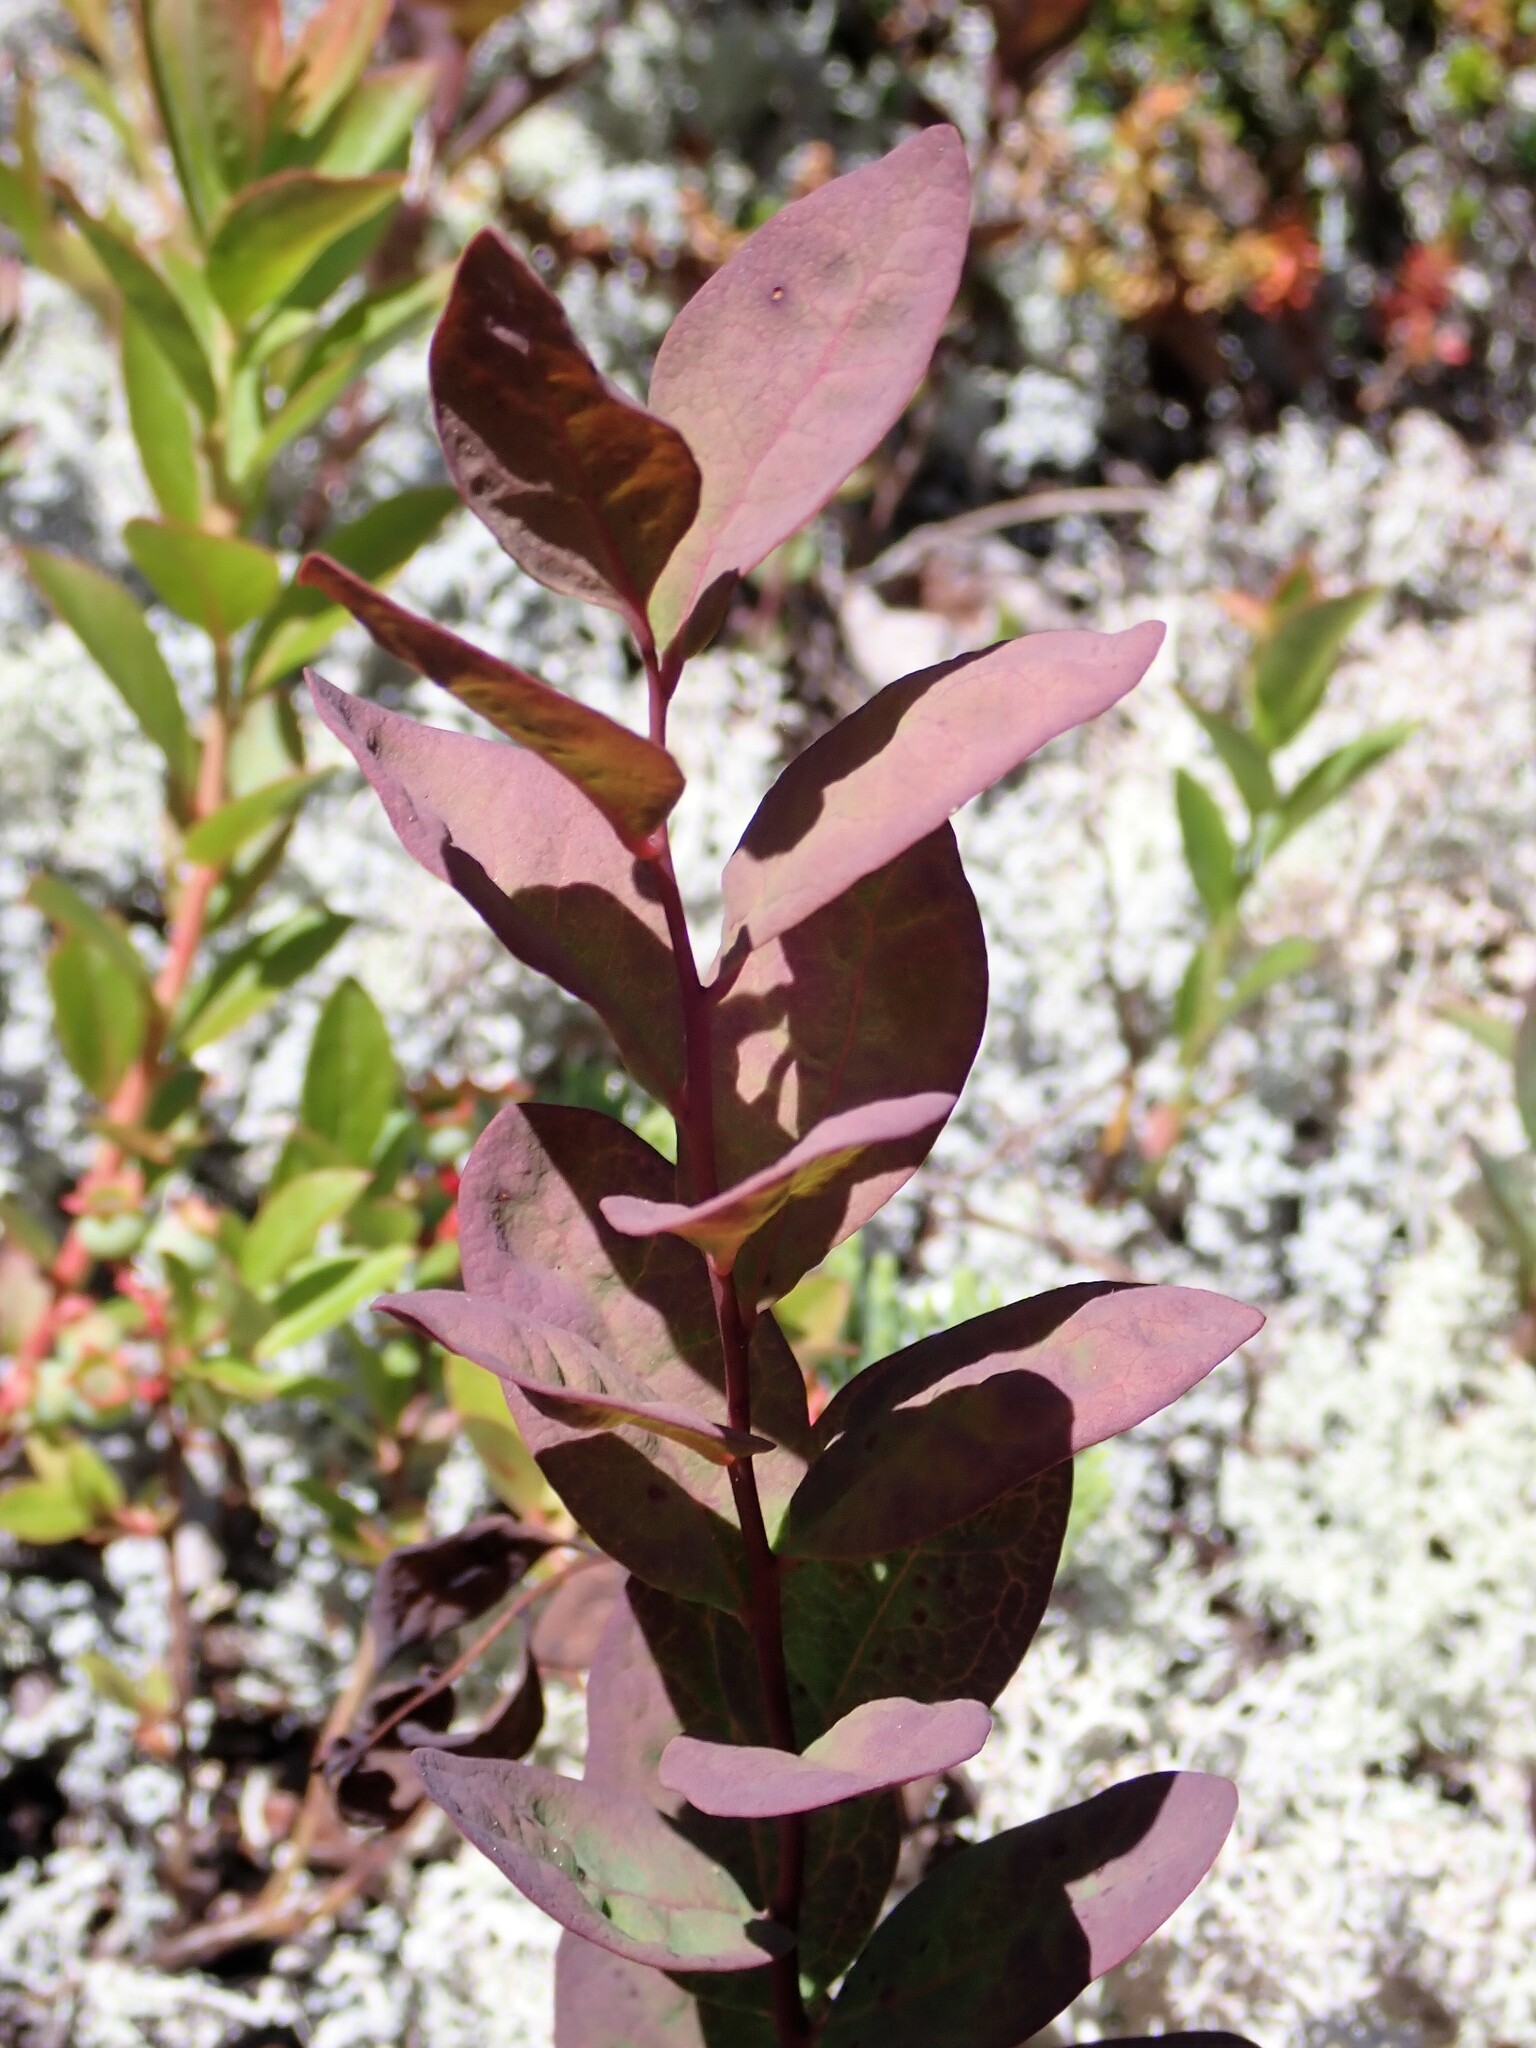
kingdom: Plantae
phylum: Tracheophyta
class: Magnoliopsida
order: Santalales
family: Comandraceae
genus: Geocaulon
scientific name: Geocaulon lividum
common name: Earthberry
